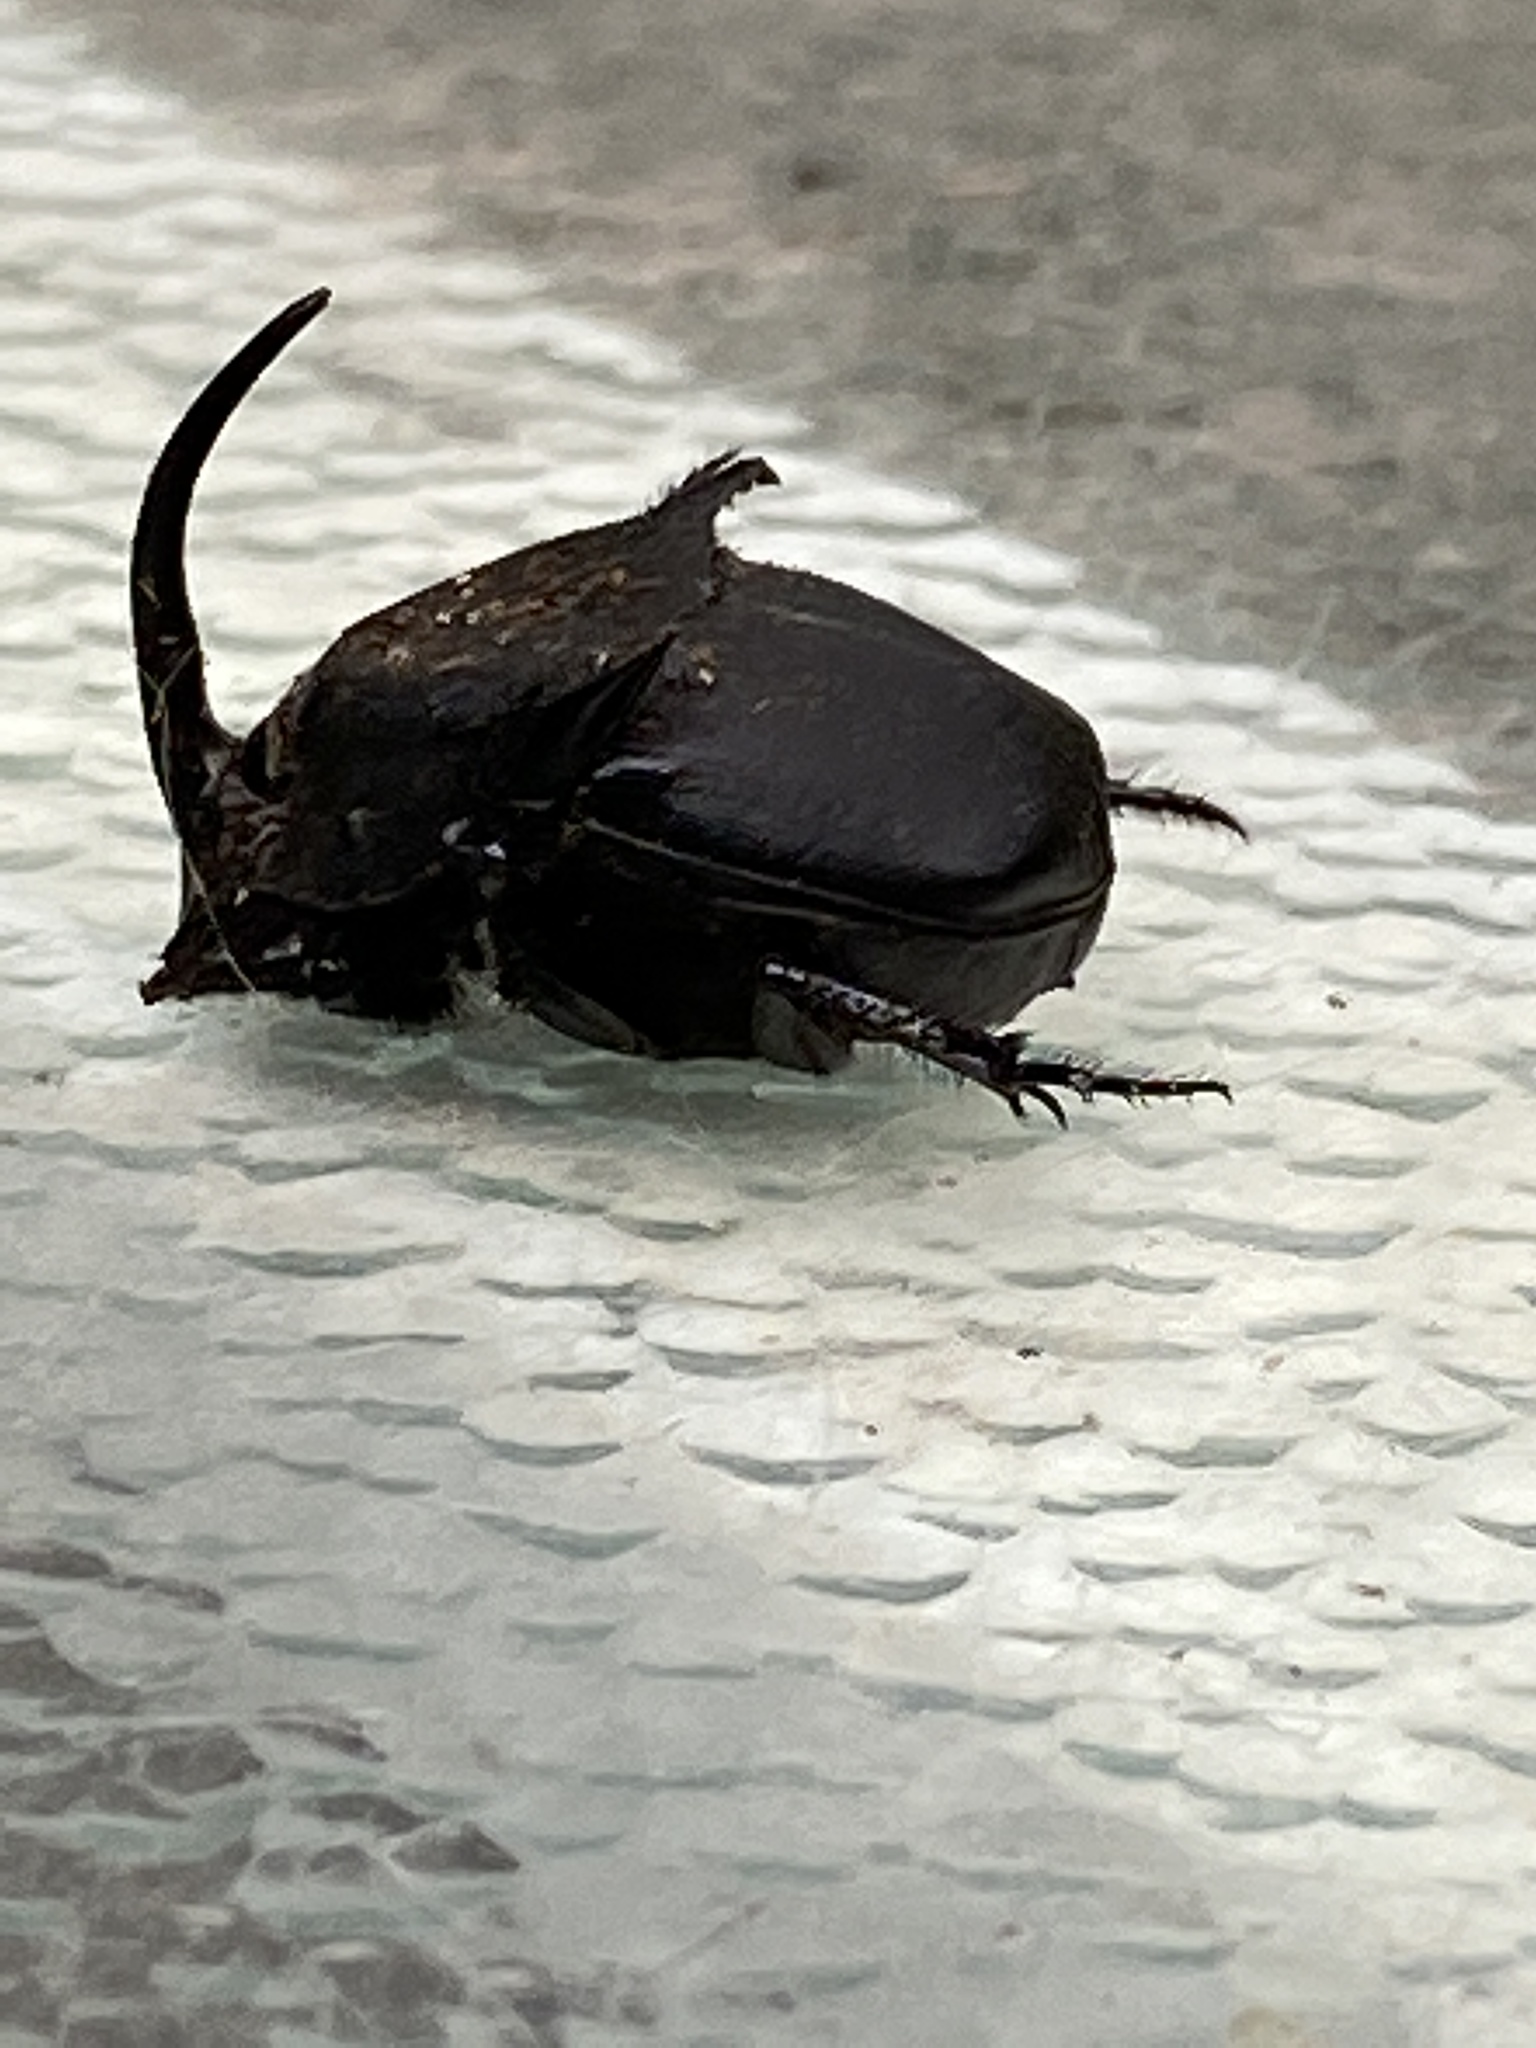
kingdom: Animalia
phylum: Arthropoda
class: Insecta
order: Coleoptera
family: Scarabaeidae
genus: Phanaeus
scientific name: Phanaeus vindex
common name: Rainbow scarab
